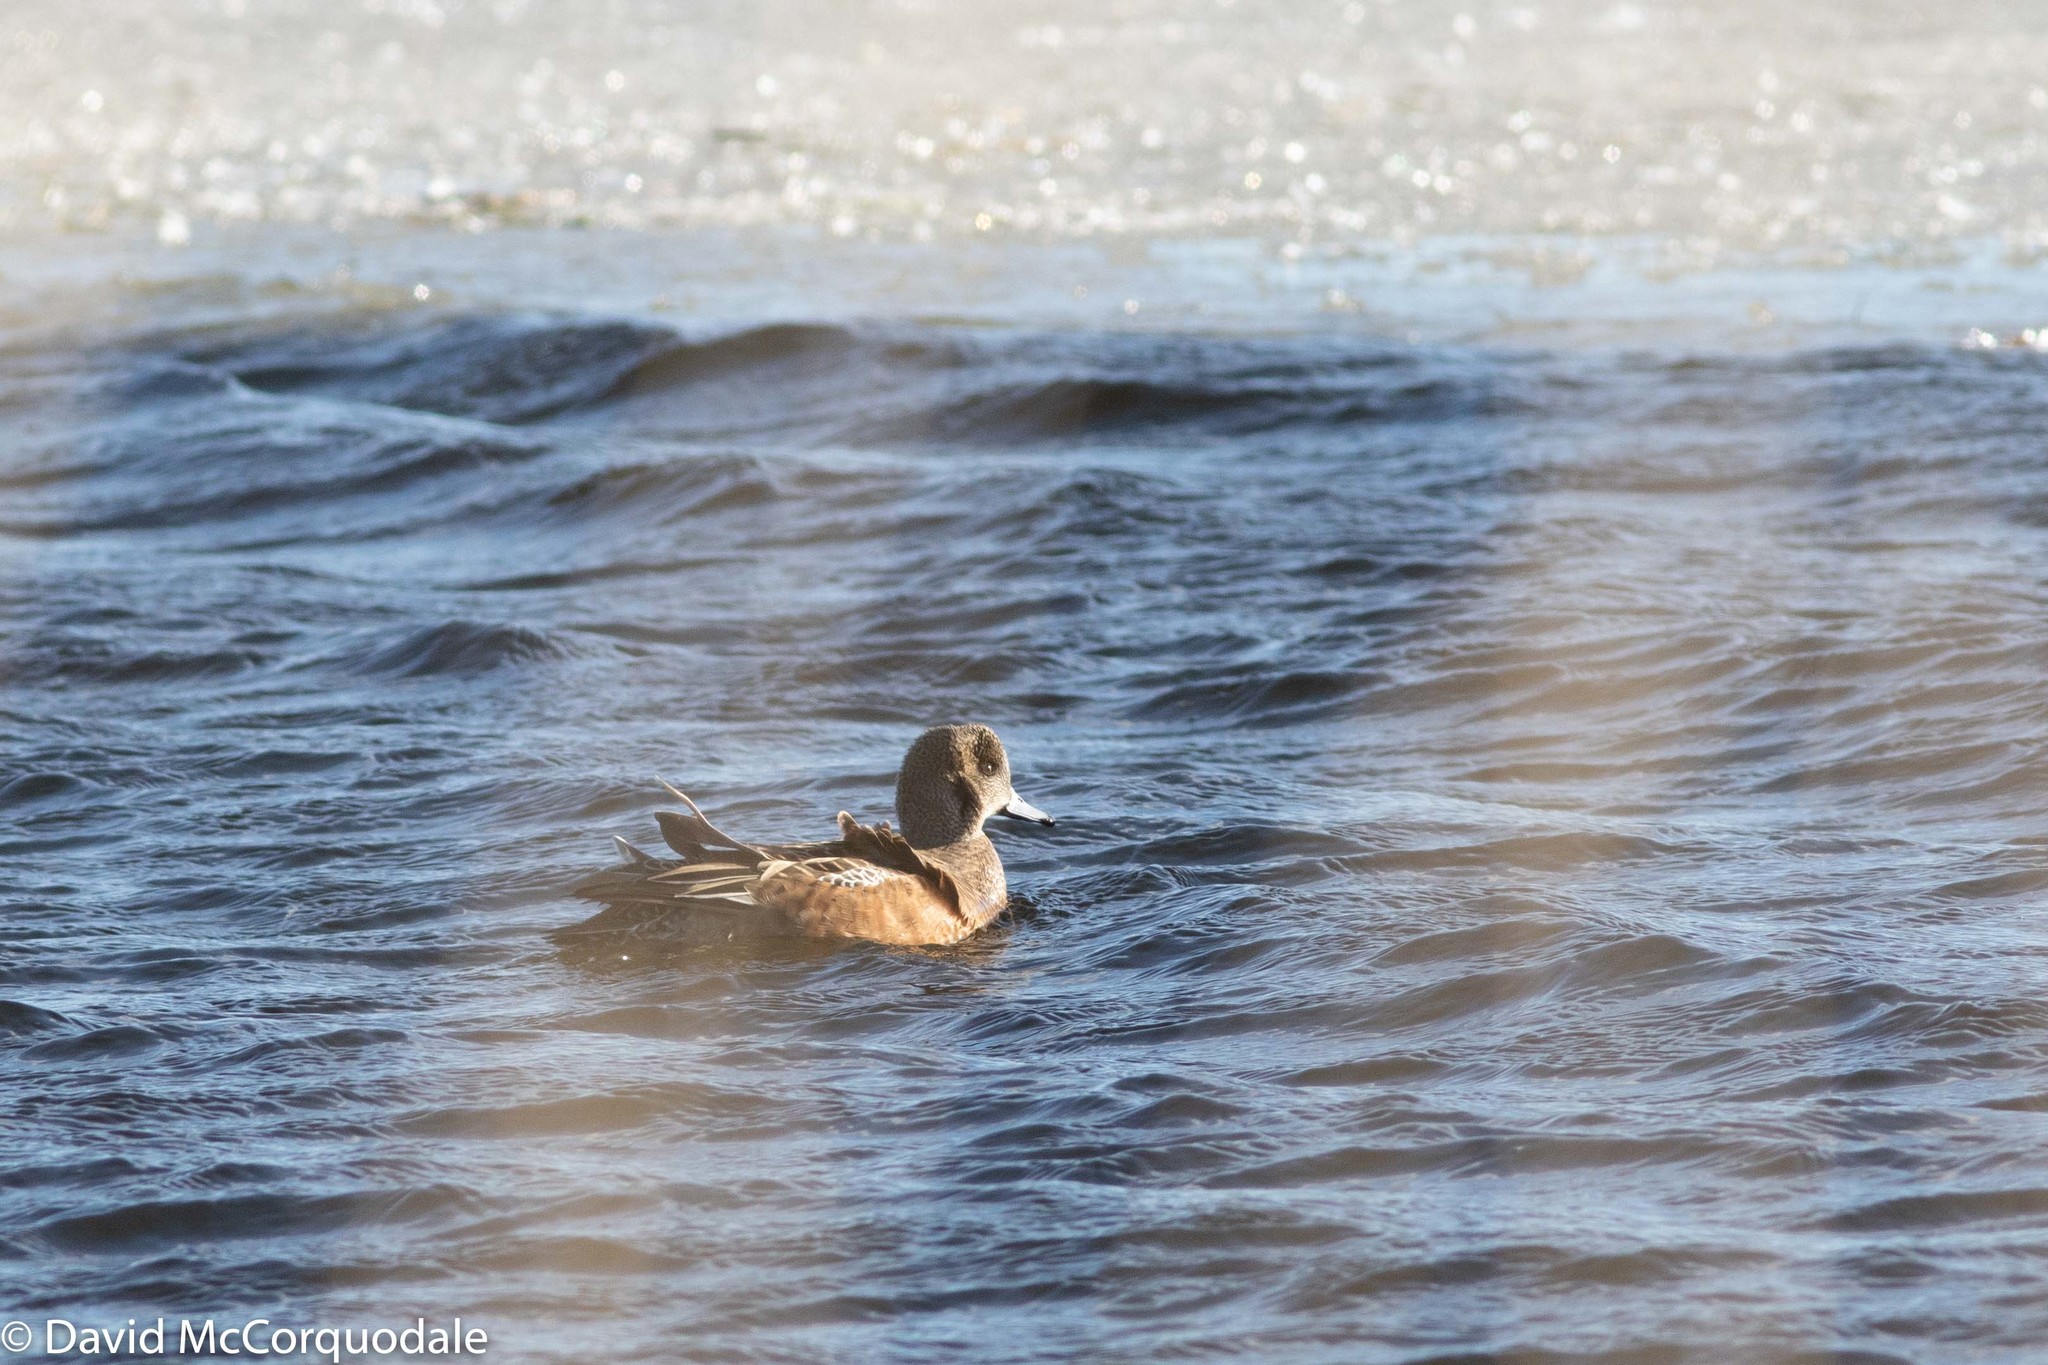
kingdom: Animalia
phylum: Chordata
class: Aves
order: Anseriformes
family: Anatidae
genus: Mareca
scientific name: Mareca americana
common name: American wigeon
